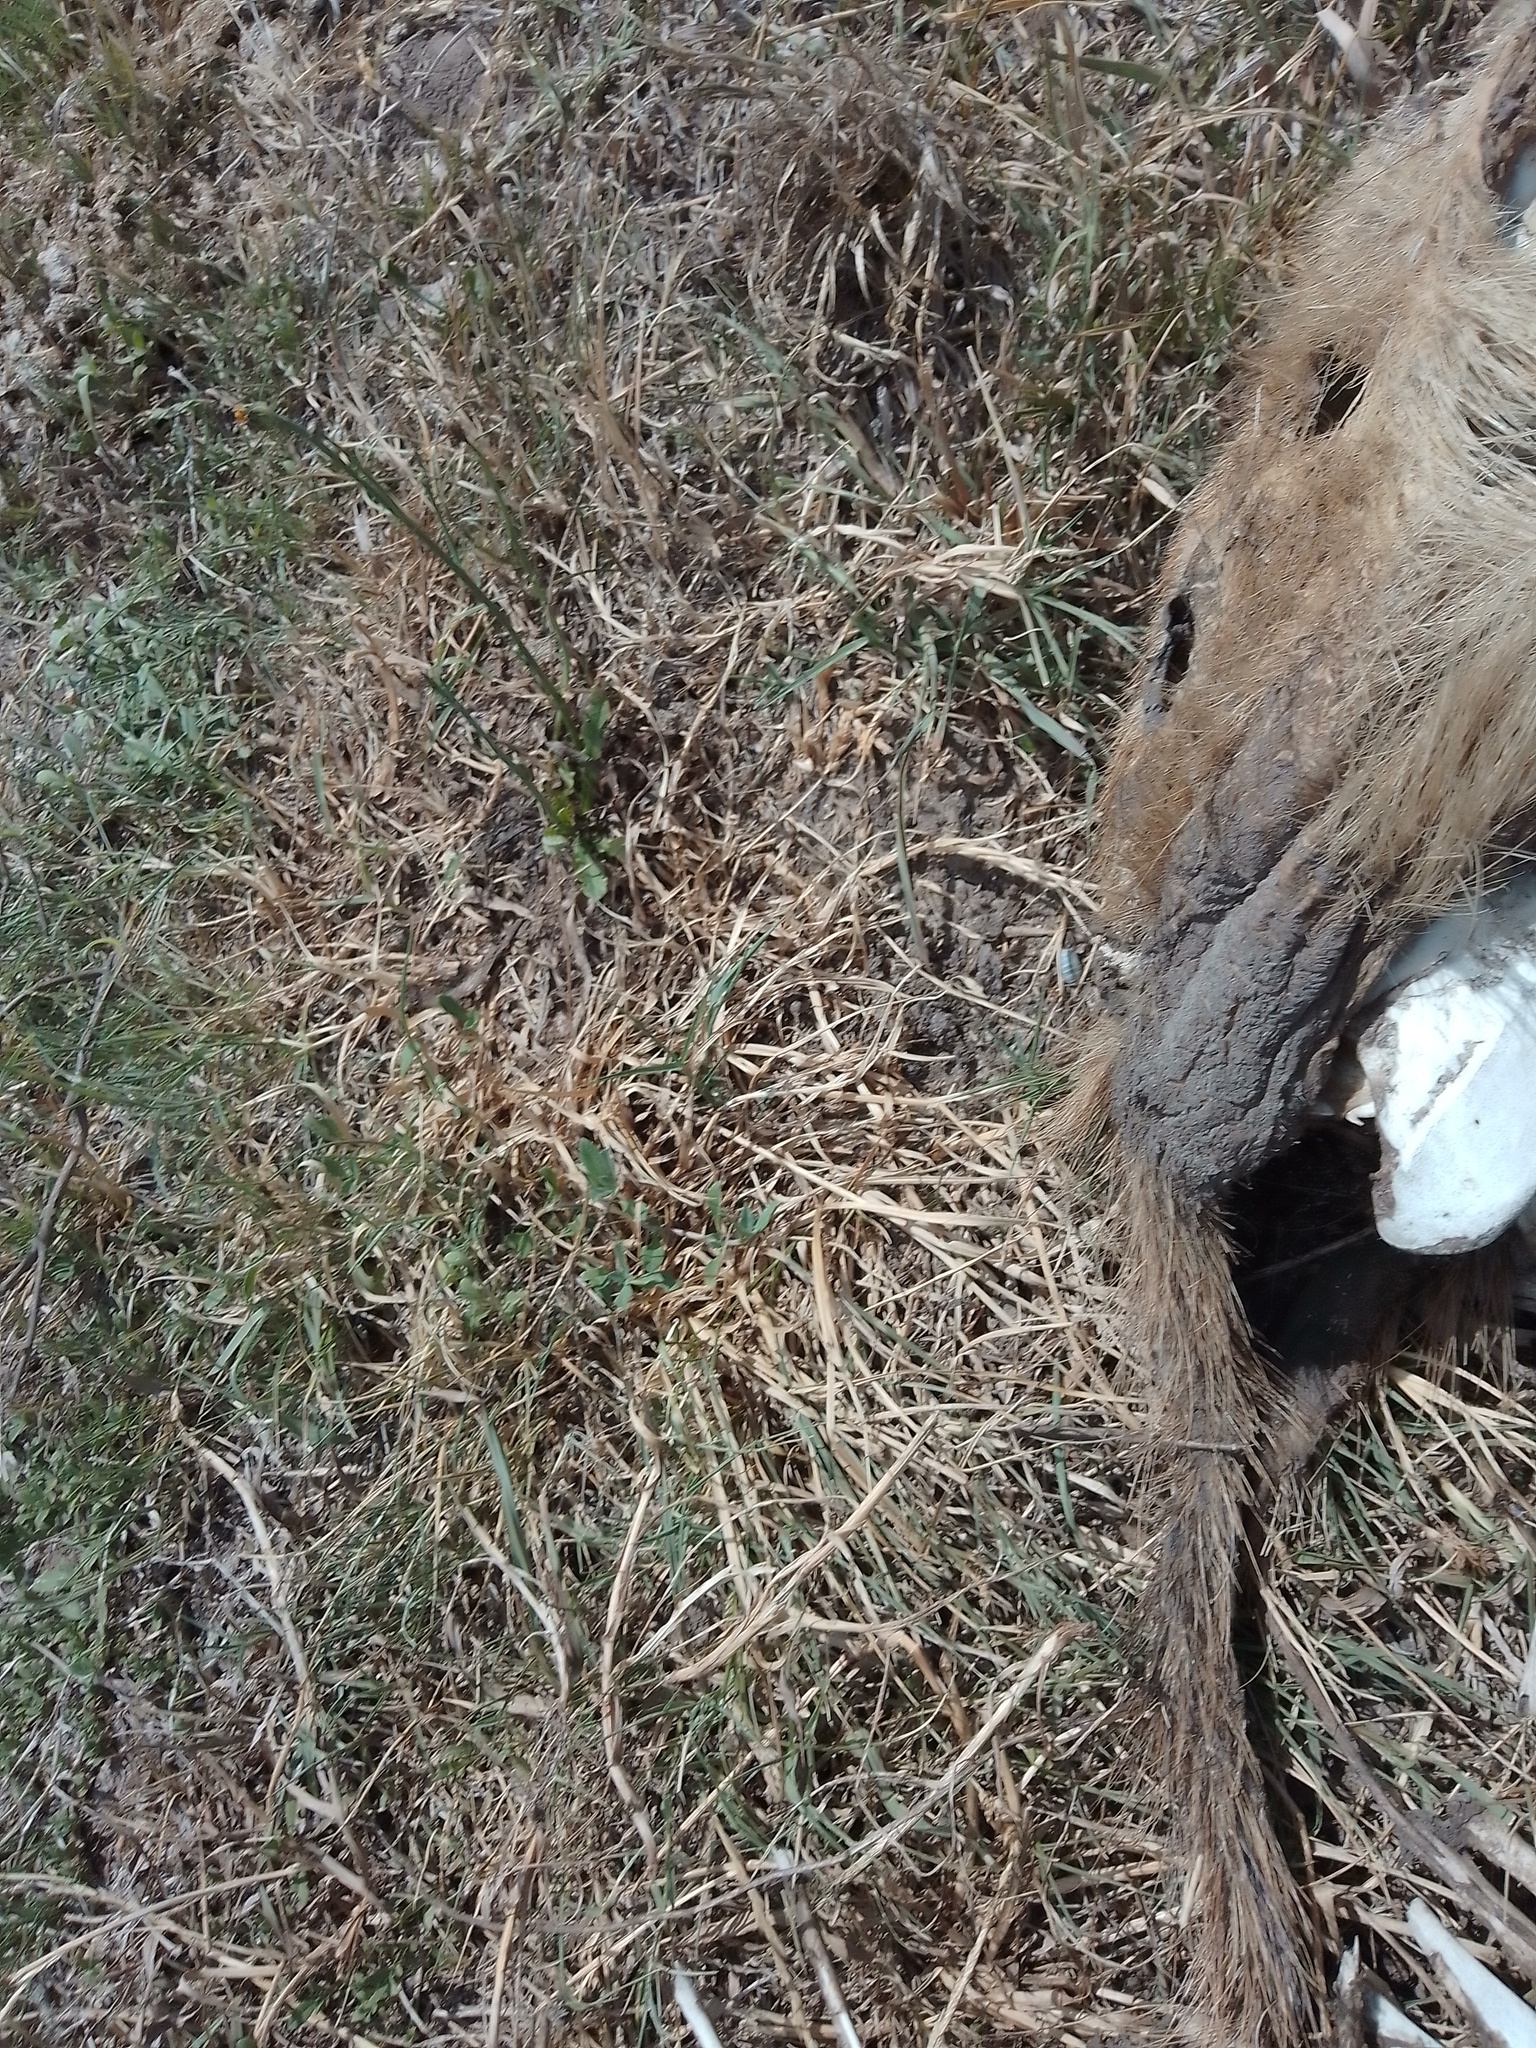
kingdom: Animalia
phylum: Chordata
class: Mammalia
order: Rodentia
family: Caviidae
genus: Hydrochoerus
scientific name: Hydrochoerus hydrochaeris
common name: Capybara
